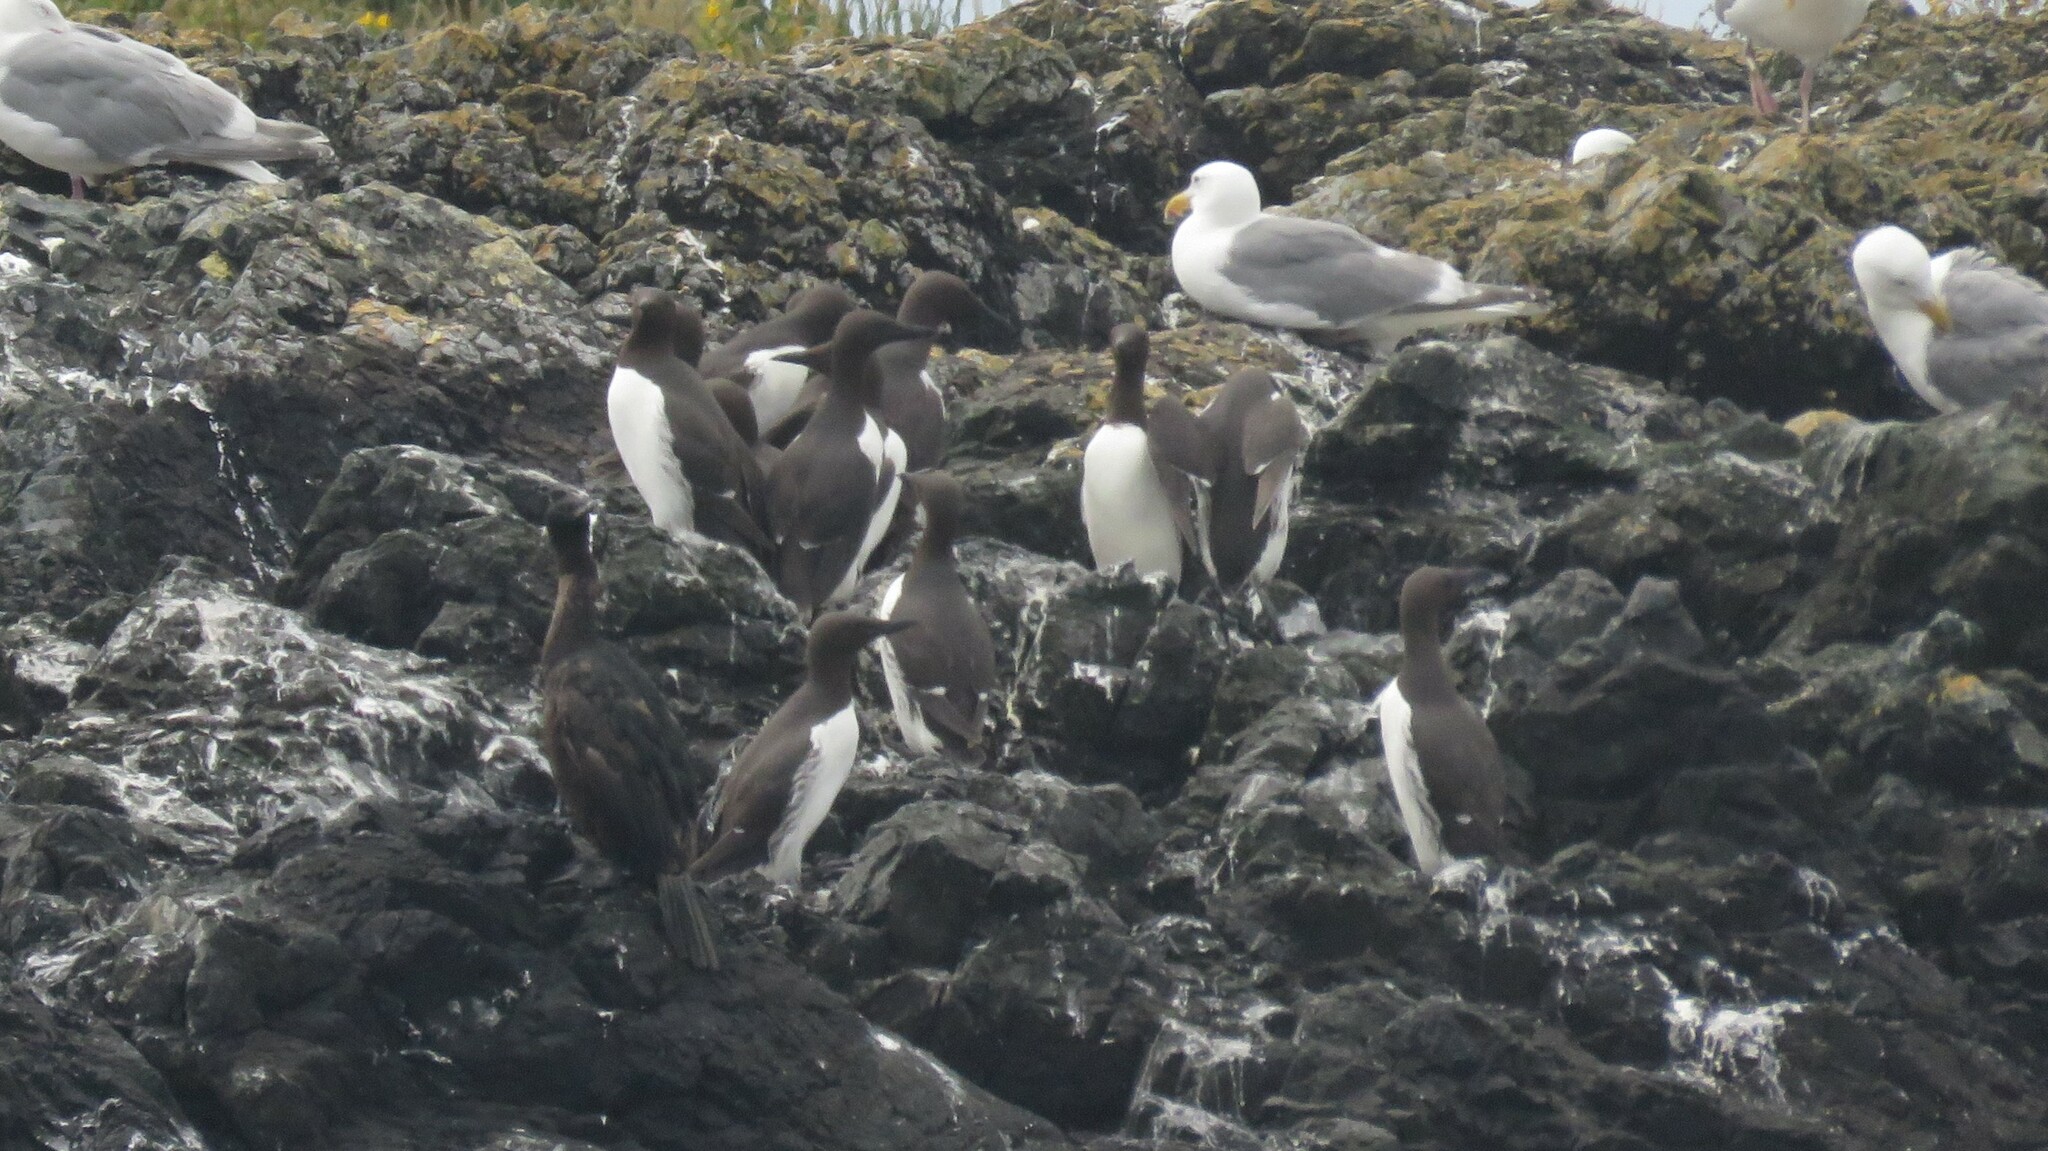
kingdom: Animalia
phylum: Chordata
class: Aves
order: Charadriiformes
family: Alcidae
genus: Uria
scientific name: Uria aalge
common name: Common murre
